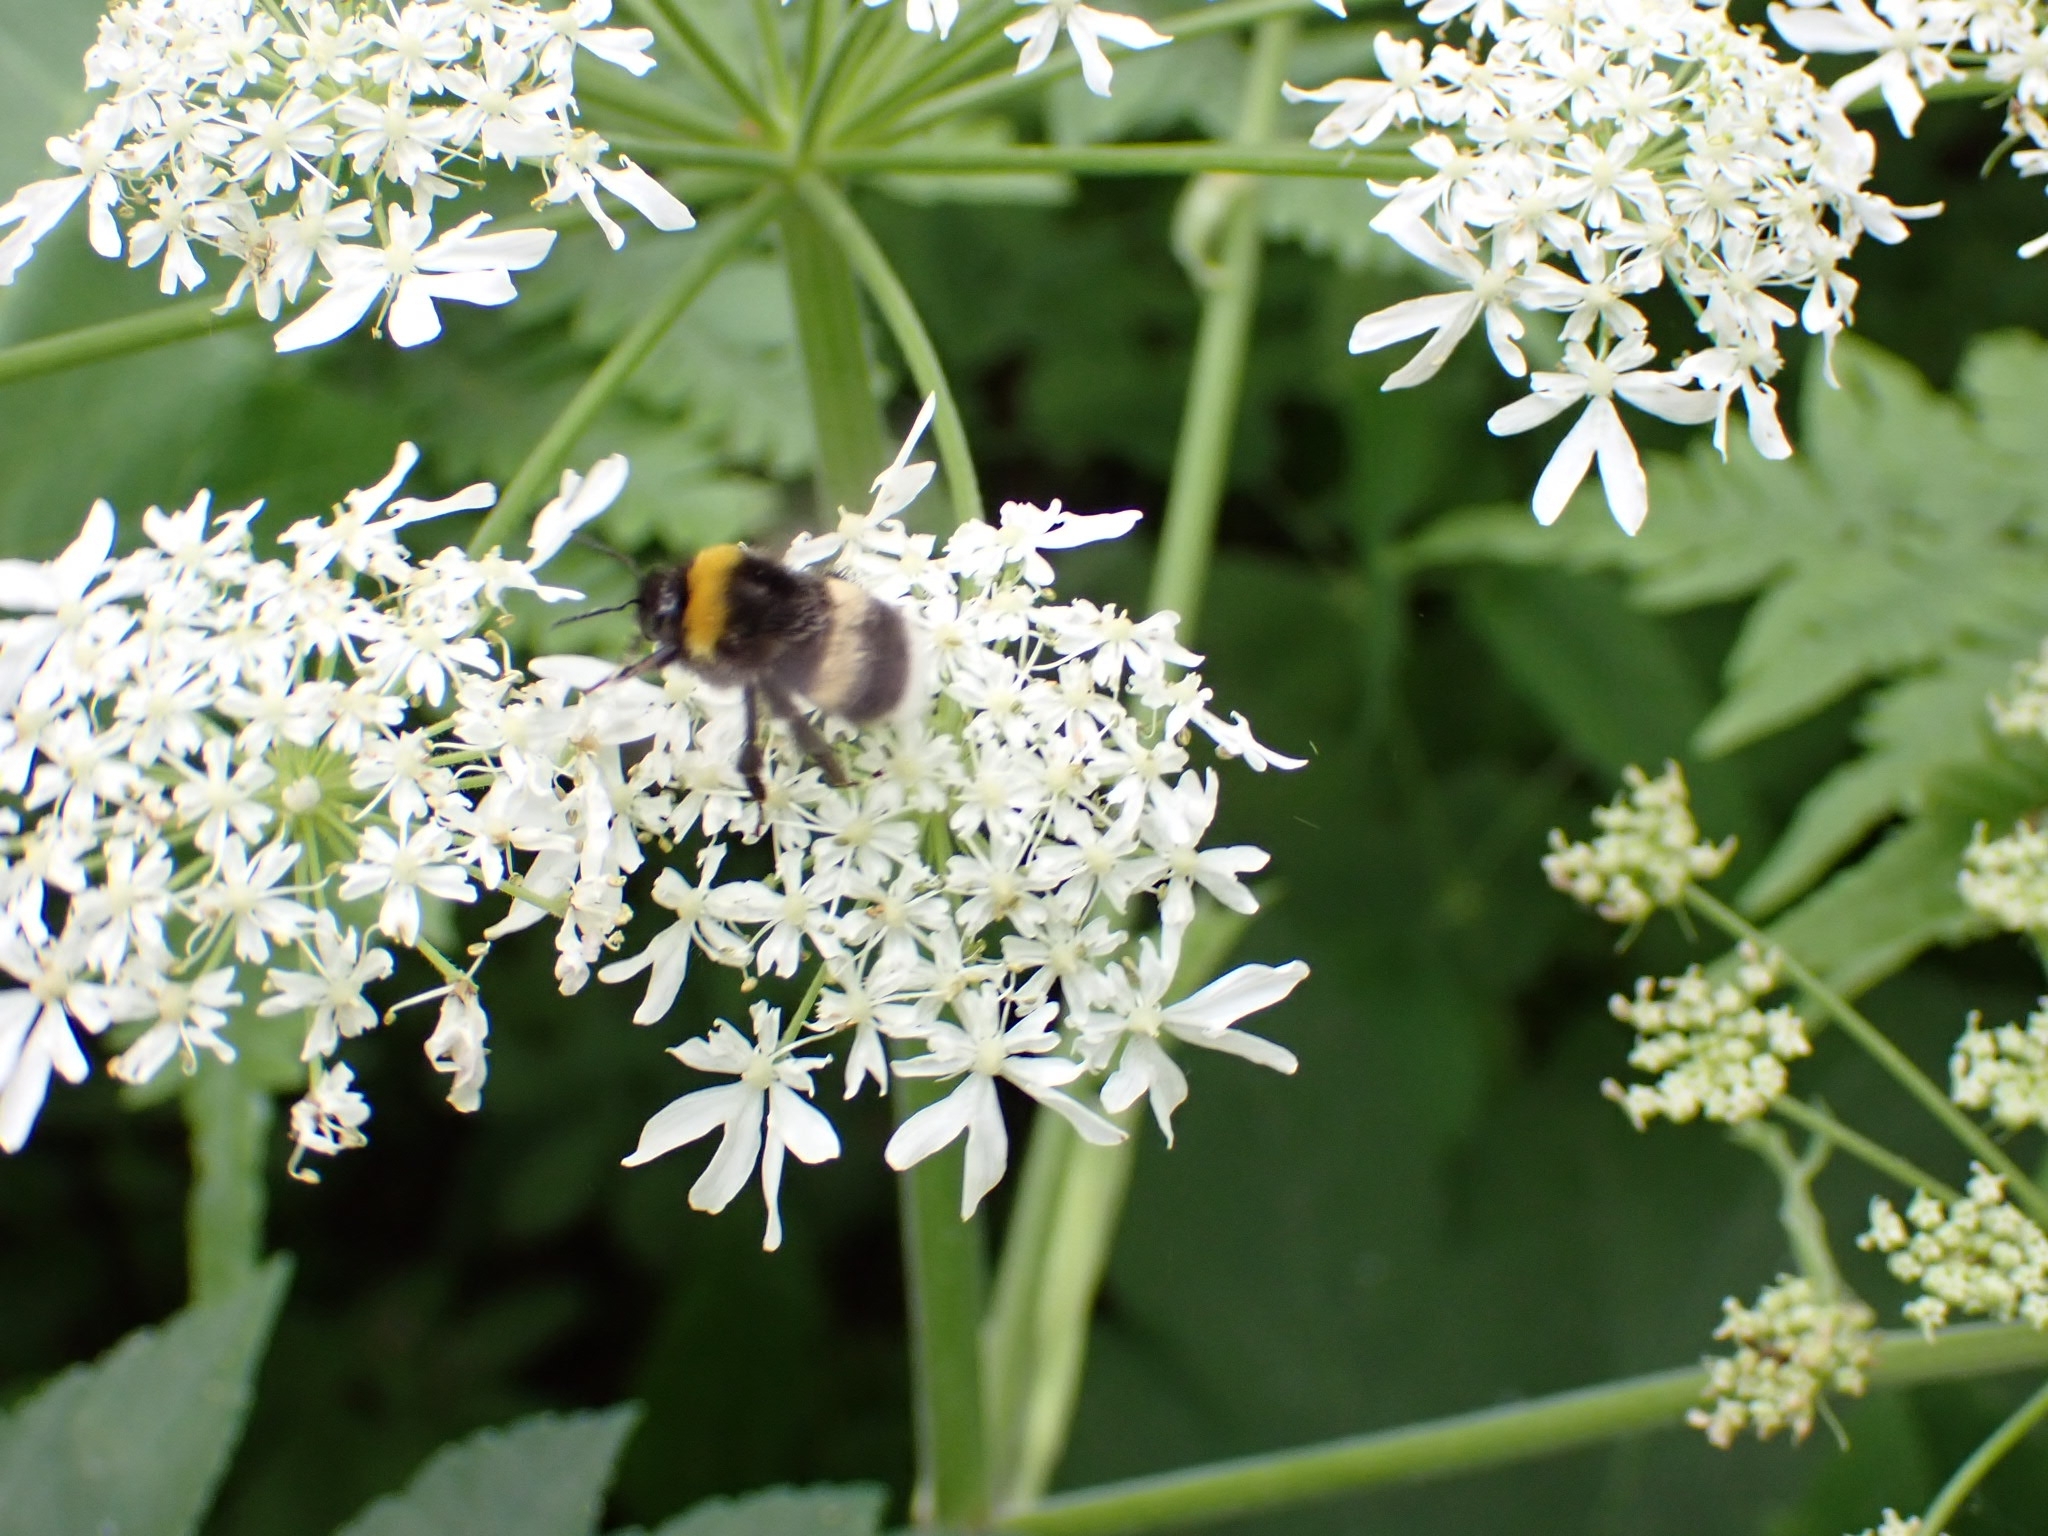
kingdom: Animalia
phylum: Arthropoda
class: Insecta
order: Hymenoptera
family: Apidae
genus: Bombus
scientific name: Bombus
